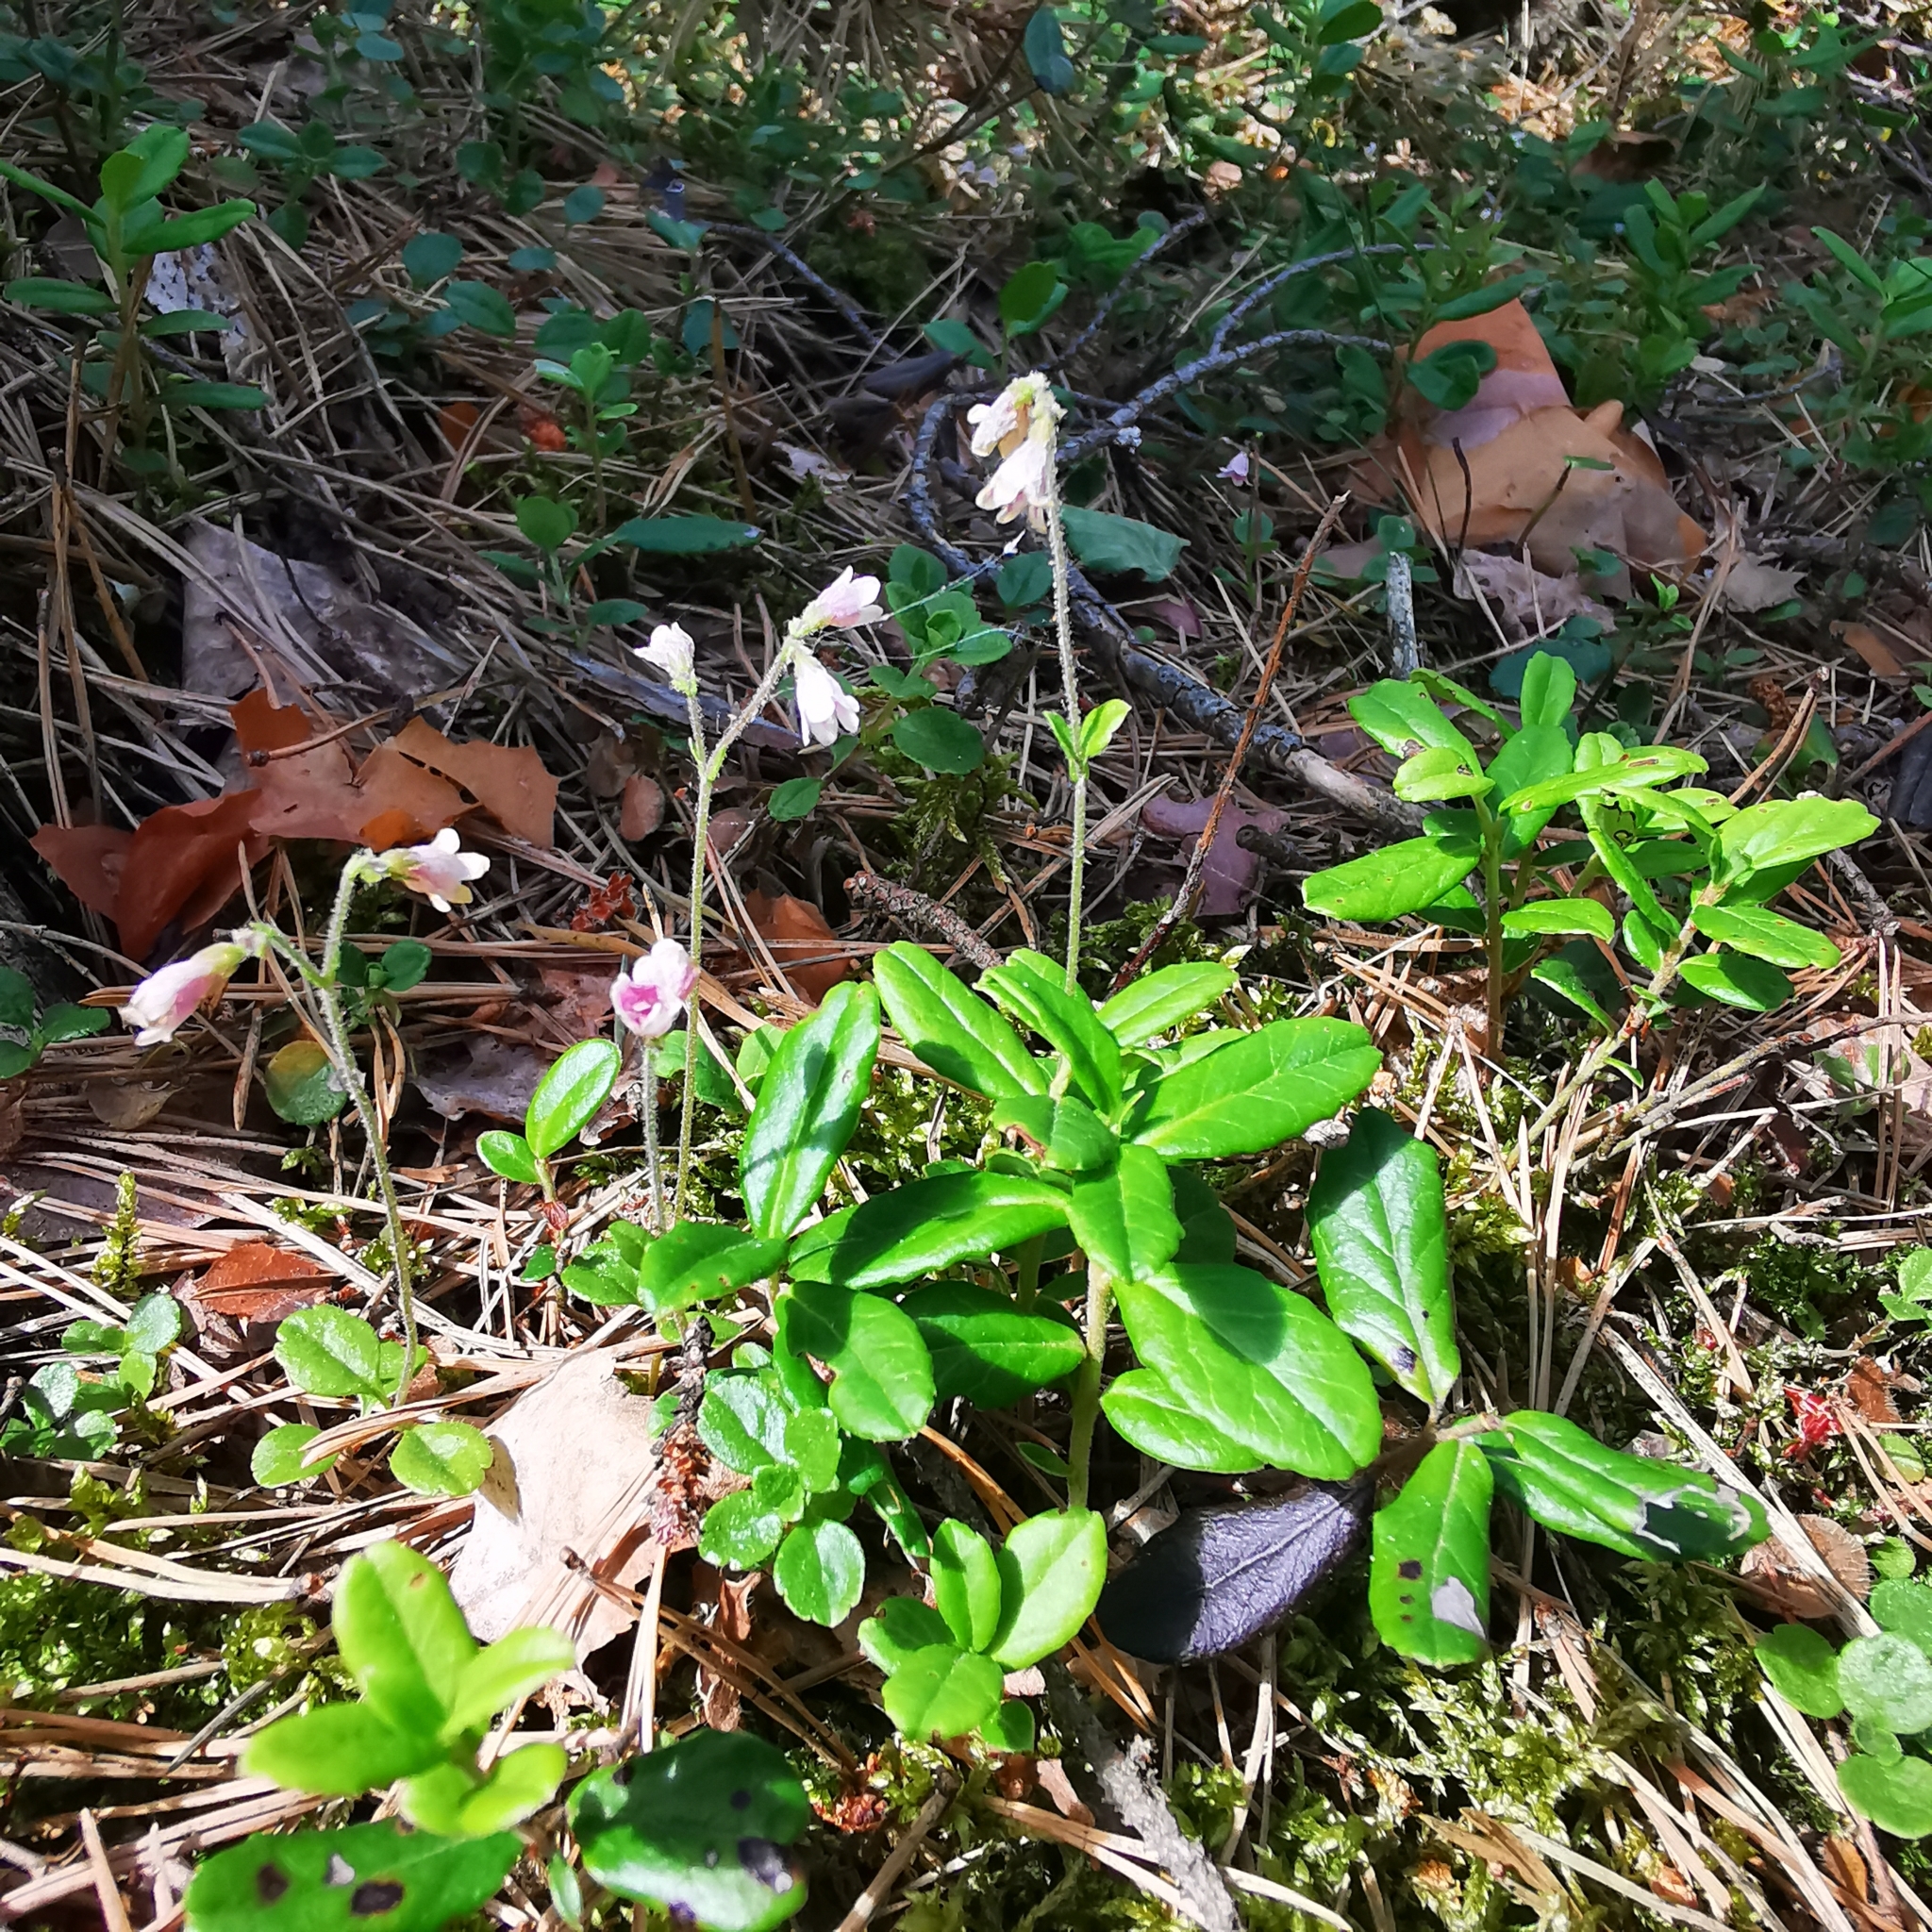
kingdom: Plantae
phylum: Tracheophyta
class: Magnoliopsida
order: Dipsacales
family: Caprifoliaceae
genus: Linnaea
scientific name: Linnaea borealis
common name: Twinflower
